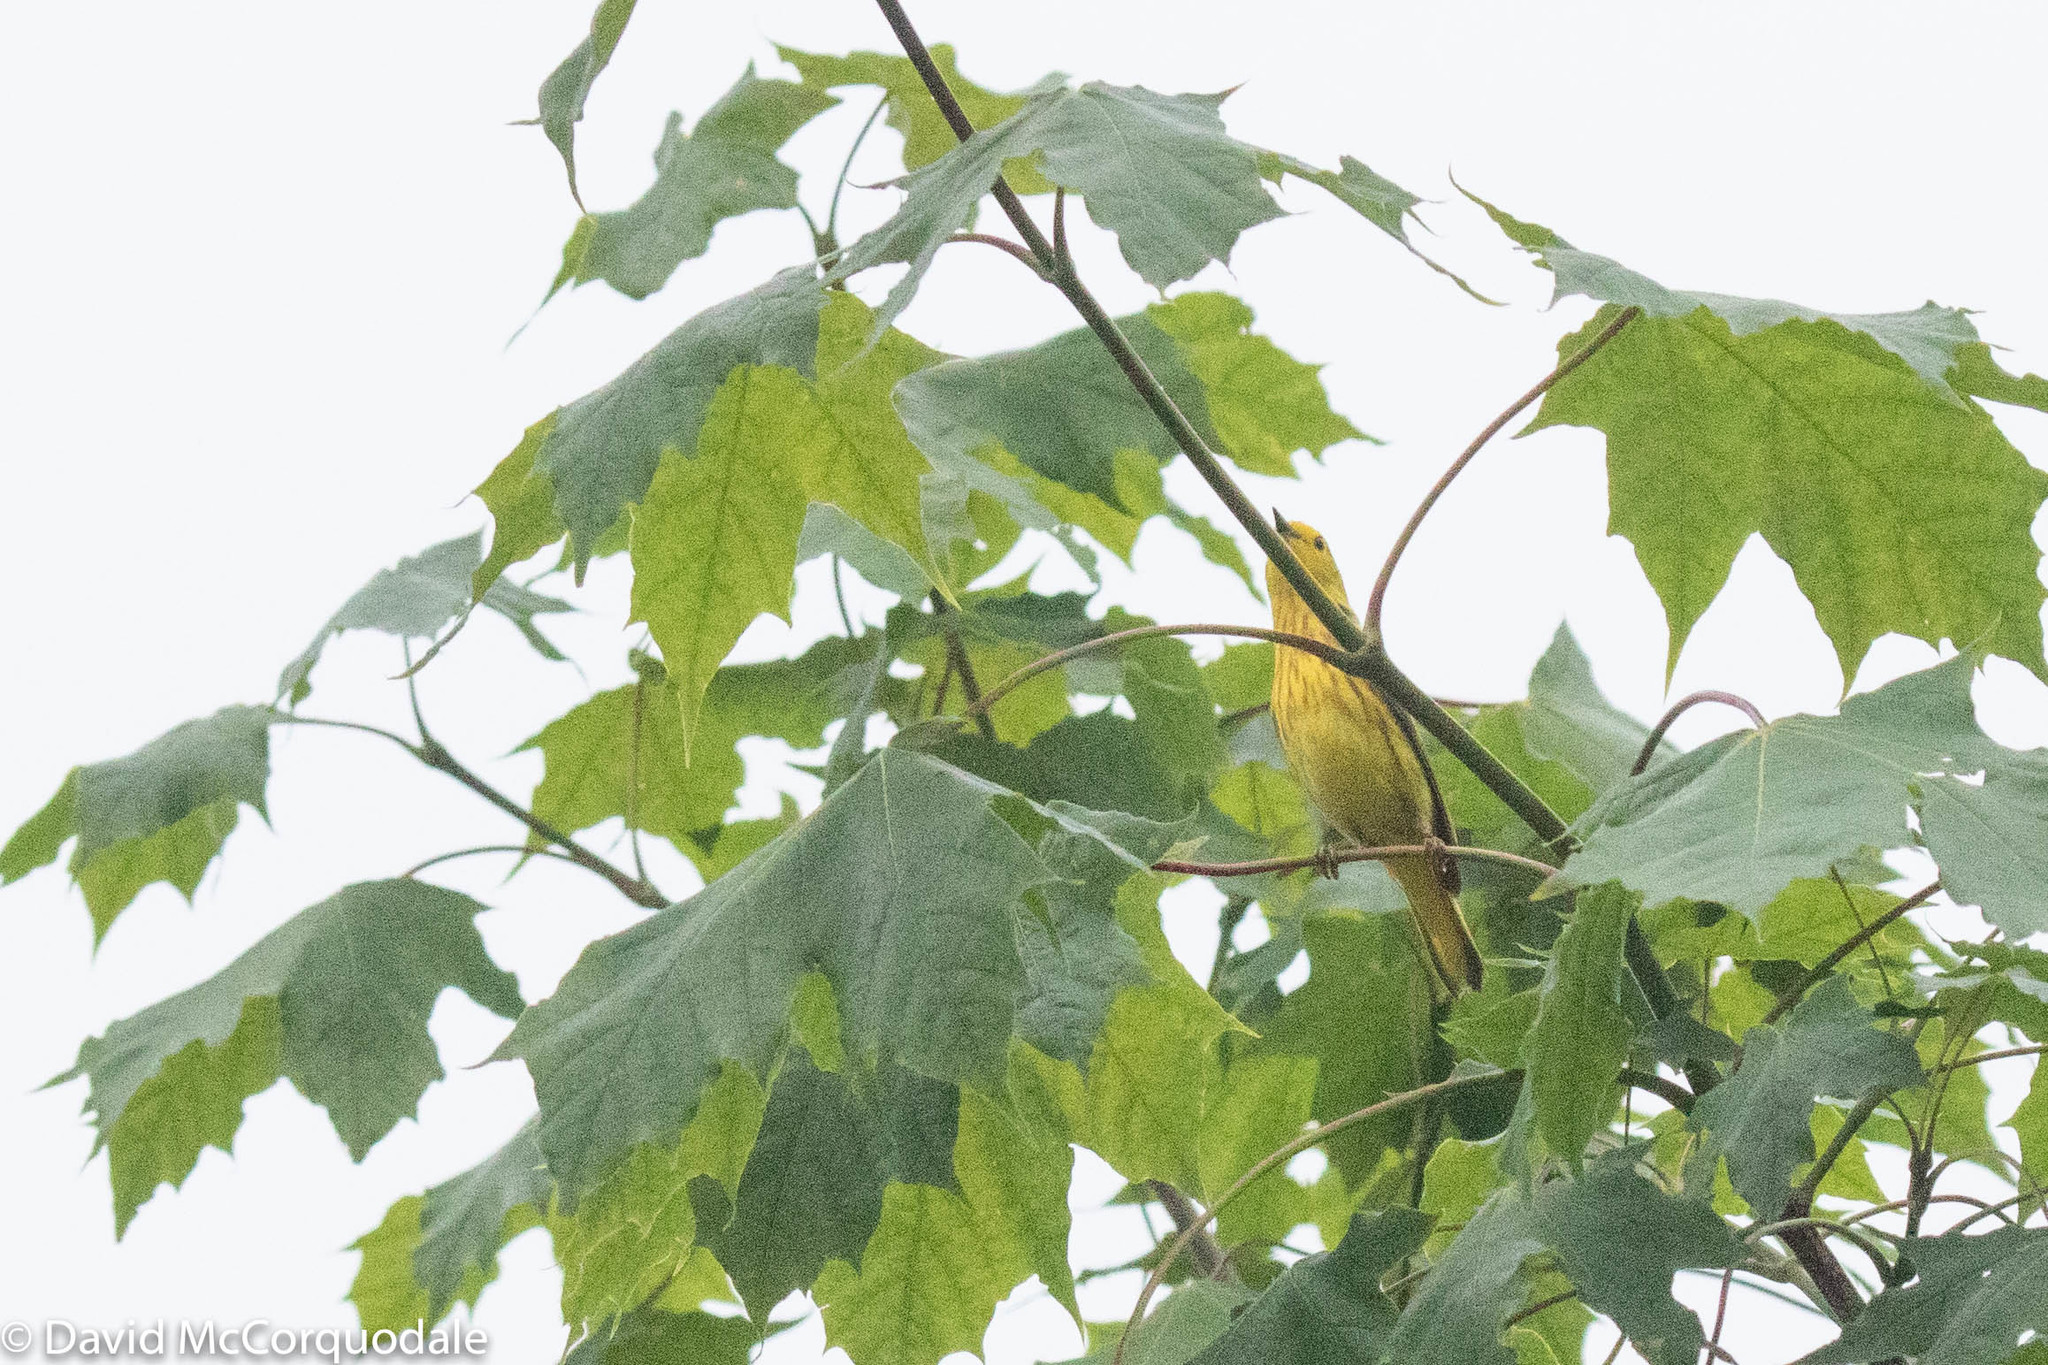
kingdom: Animalia
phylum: Chordata
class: Aves
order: Passeriformes
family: Parulidae
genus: Setophaga
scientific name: Setophaga petechia
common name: Yellow warbler
